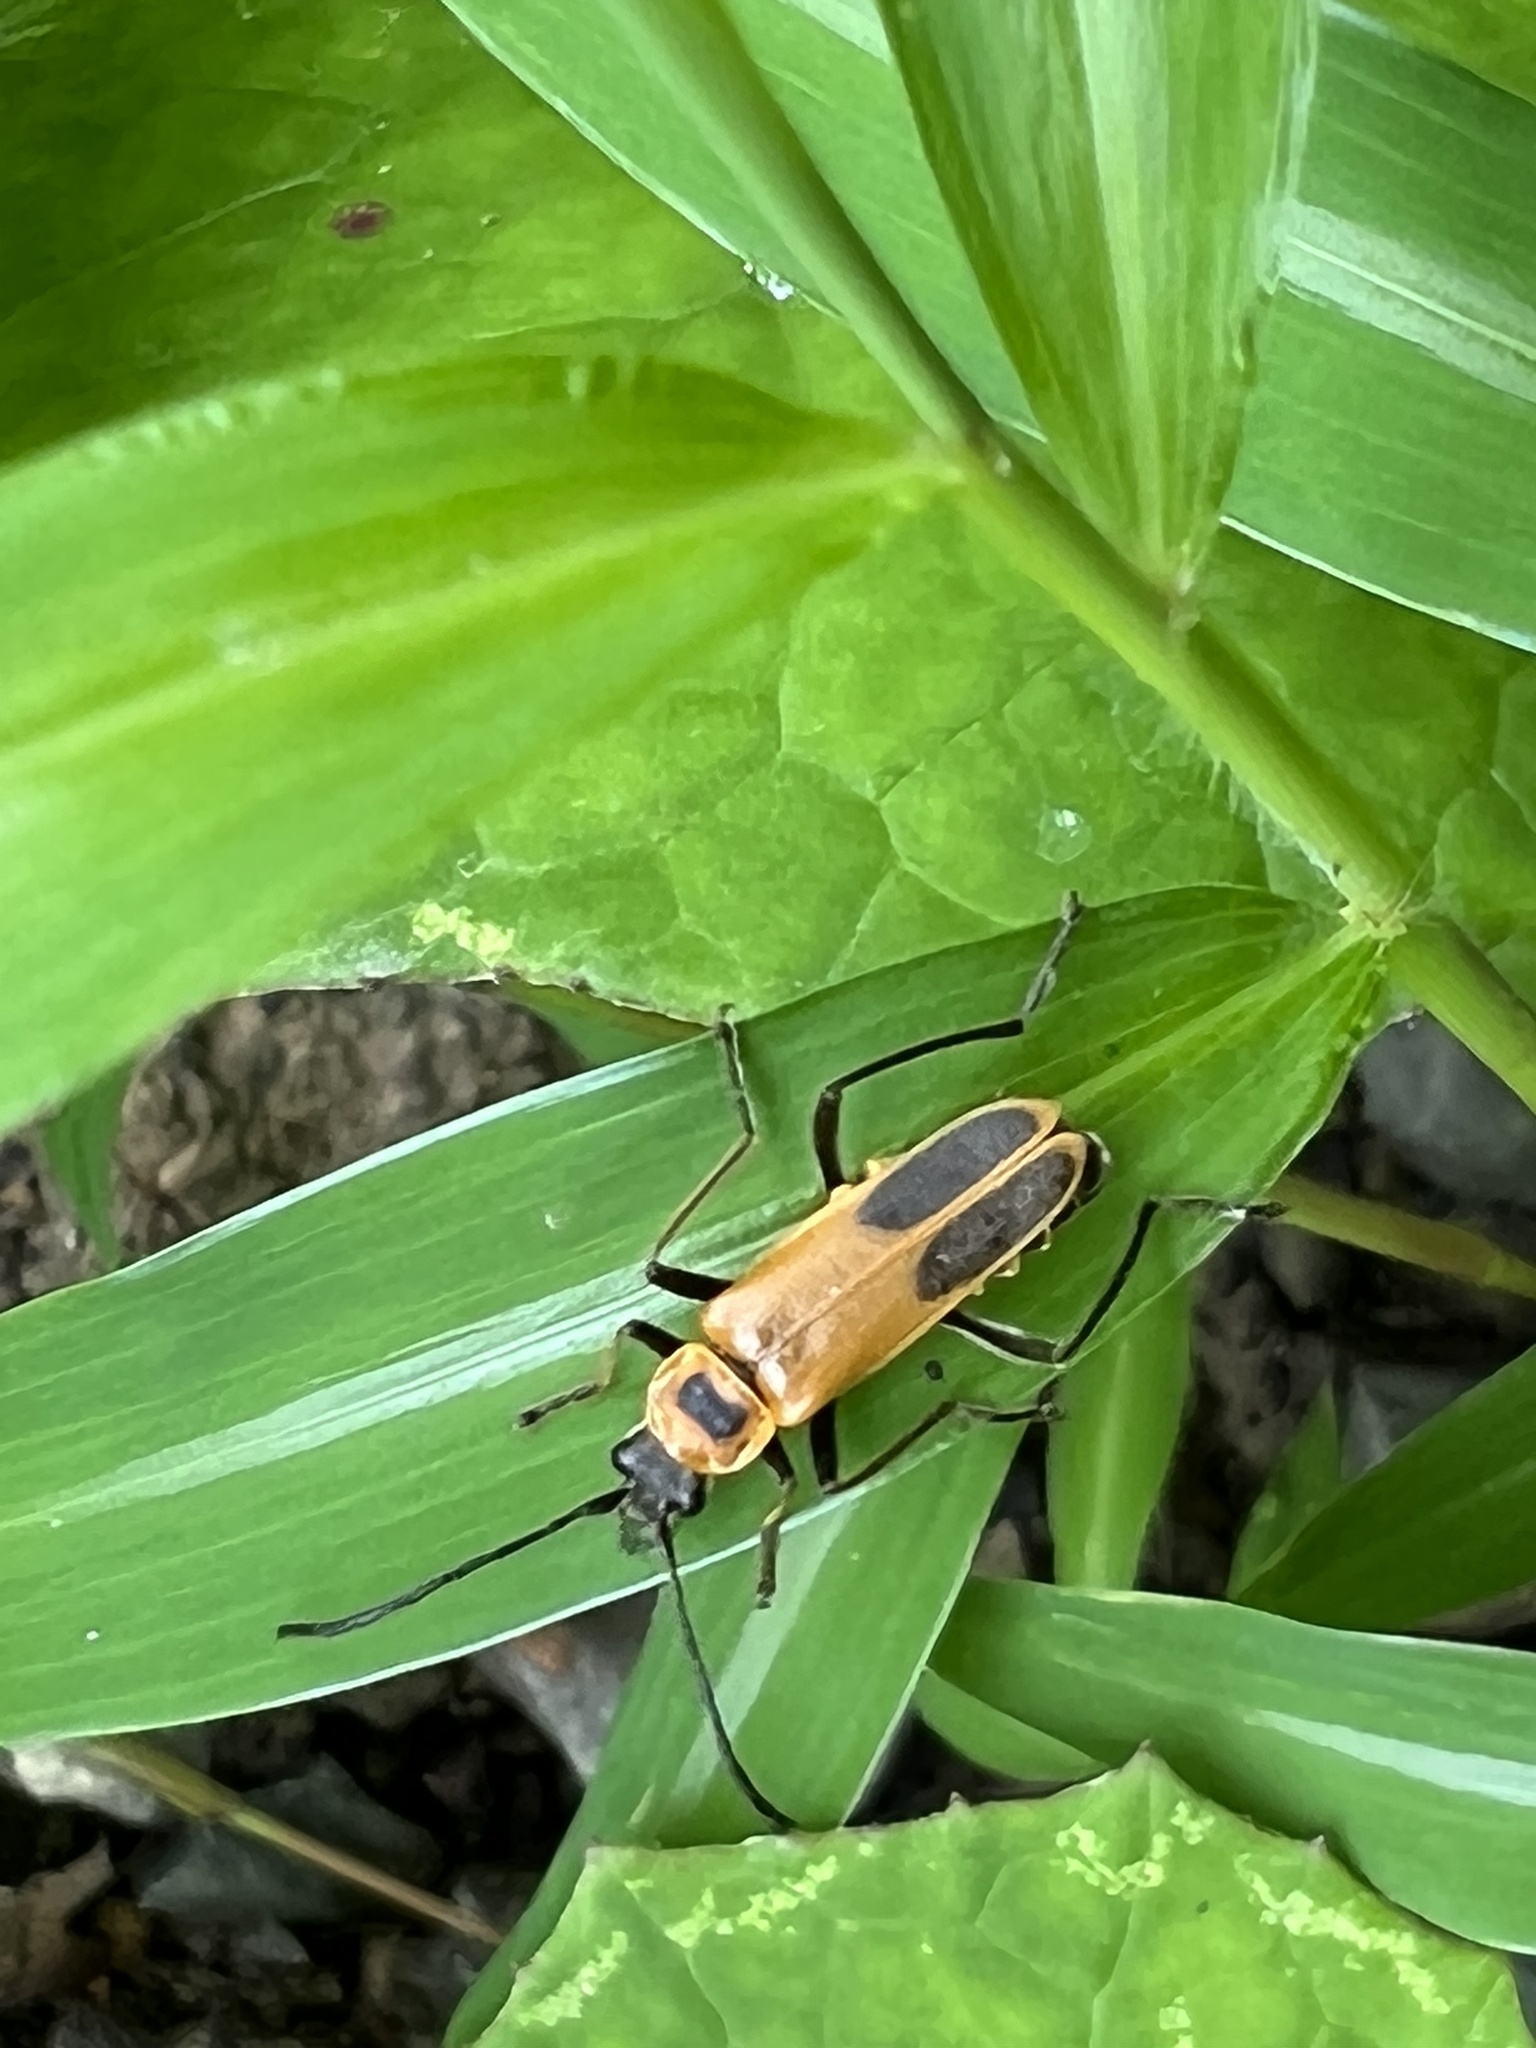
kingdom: Animalia
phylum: Arthropoda
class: Insecta
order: Coleoptera
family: Cantharidae
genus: Chauliognathus
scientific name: Chauliognathus pensylvanicus
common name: Goldenrod soldier beetle
